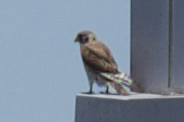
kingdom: Animalia
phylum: Chordata
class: Aves
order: Falconiformes
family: Falconidae
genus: Falco
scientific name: Falco sparverius
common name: American kestrel
